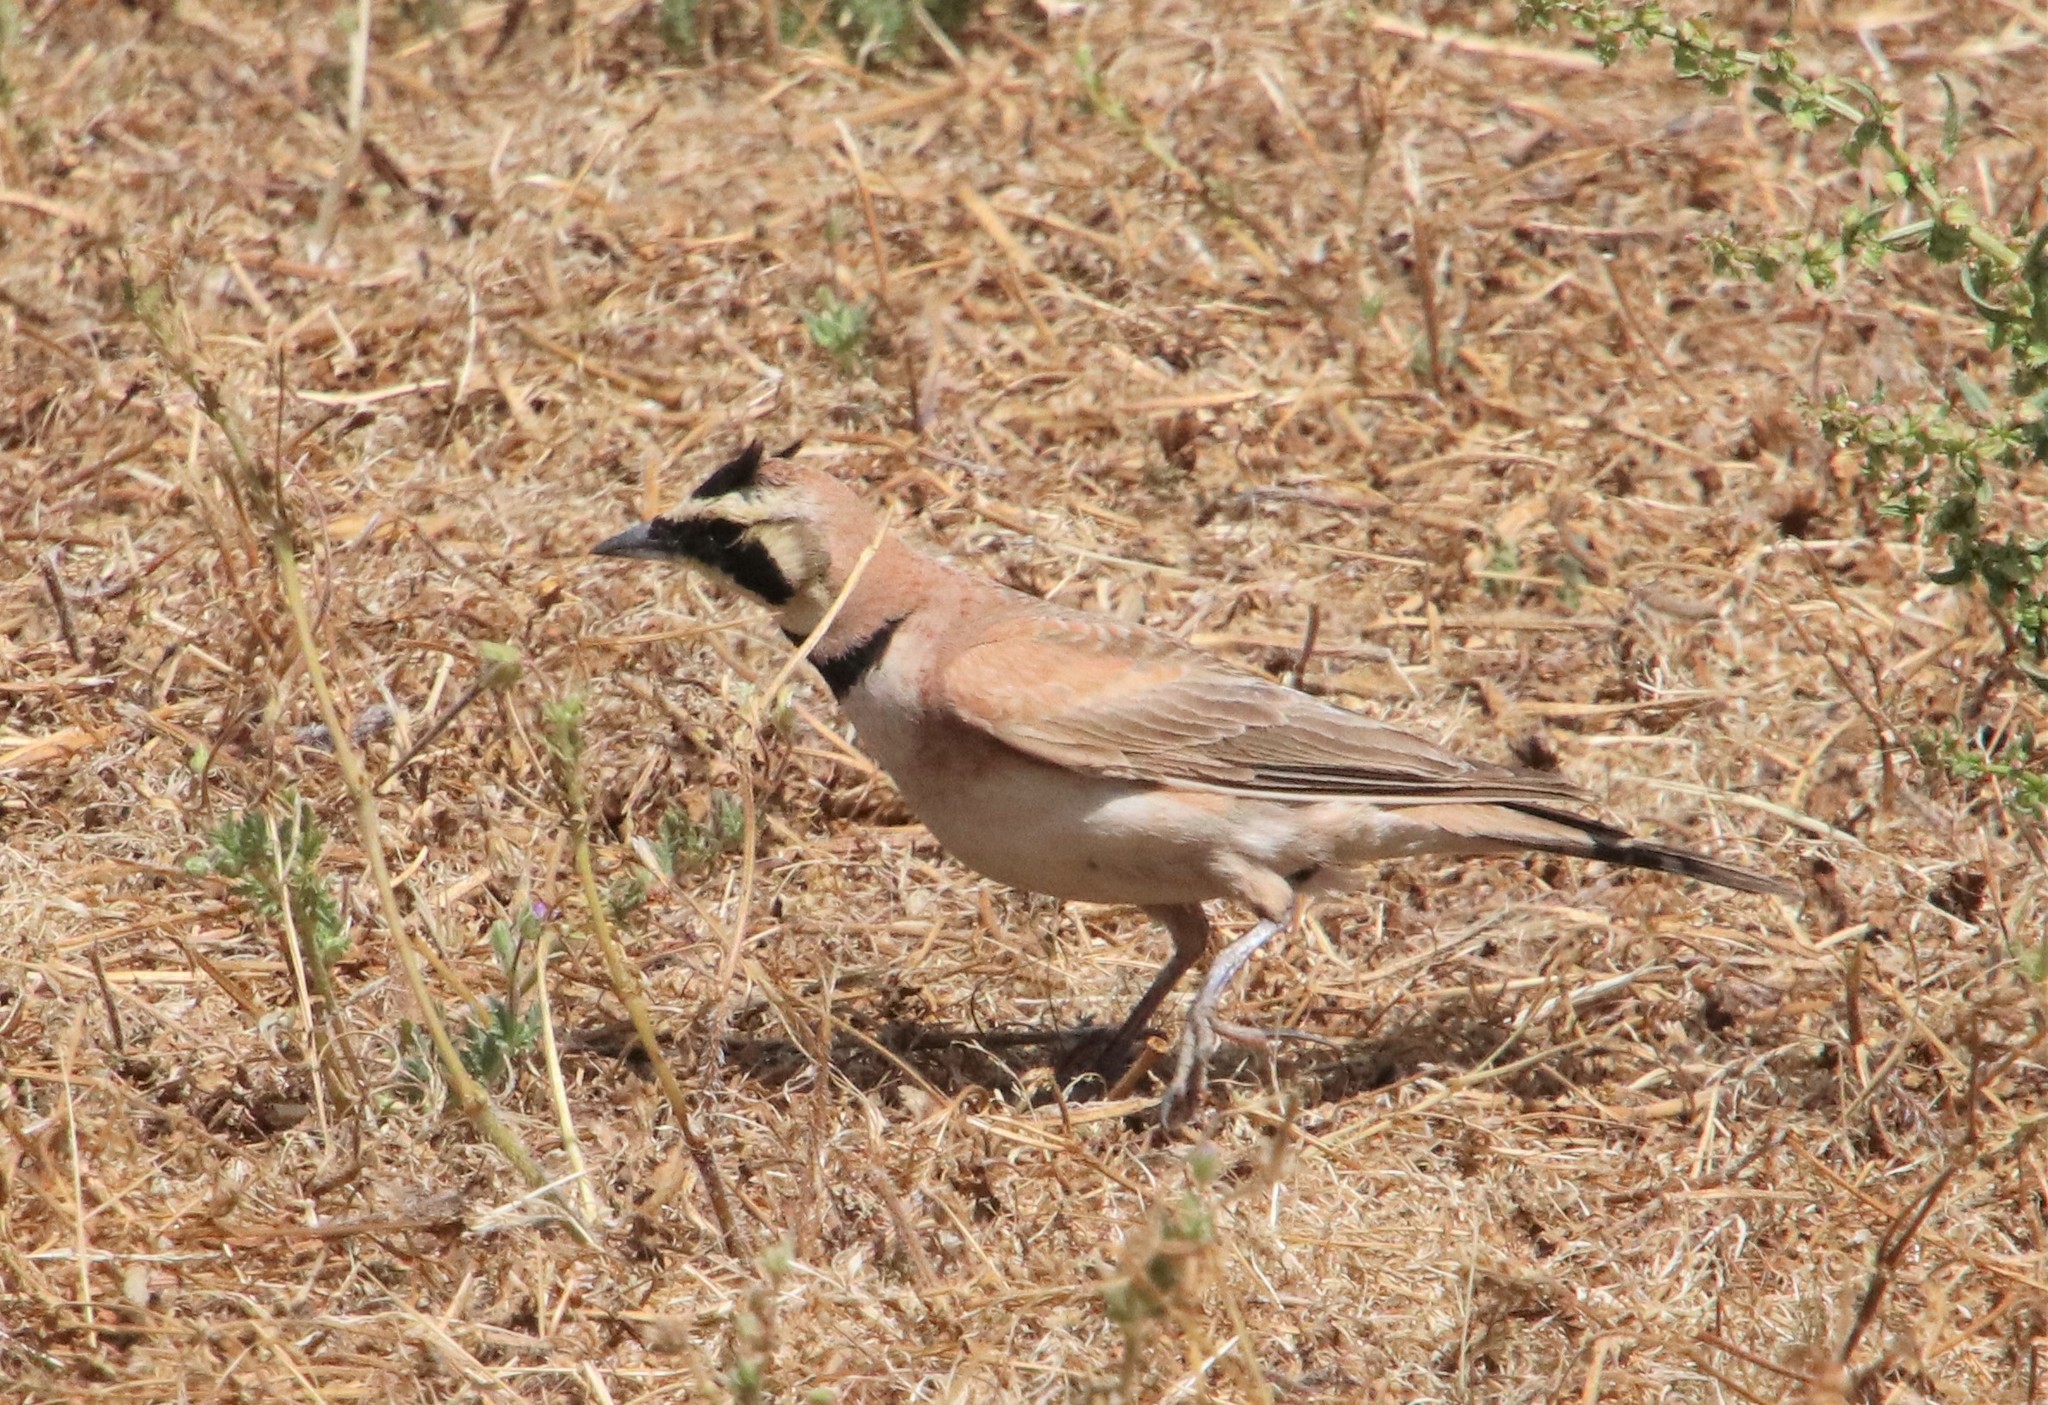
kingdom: Animalia
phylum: Chordata
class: Aves
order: Passeriformes
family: Alaudidae
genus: Eremophila
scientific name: Eremophila alpestris
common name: Horned lark
